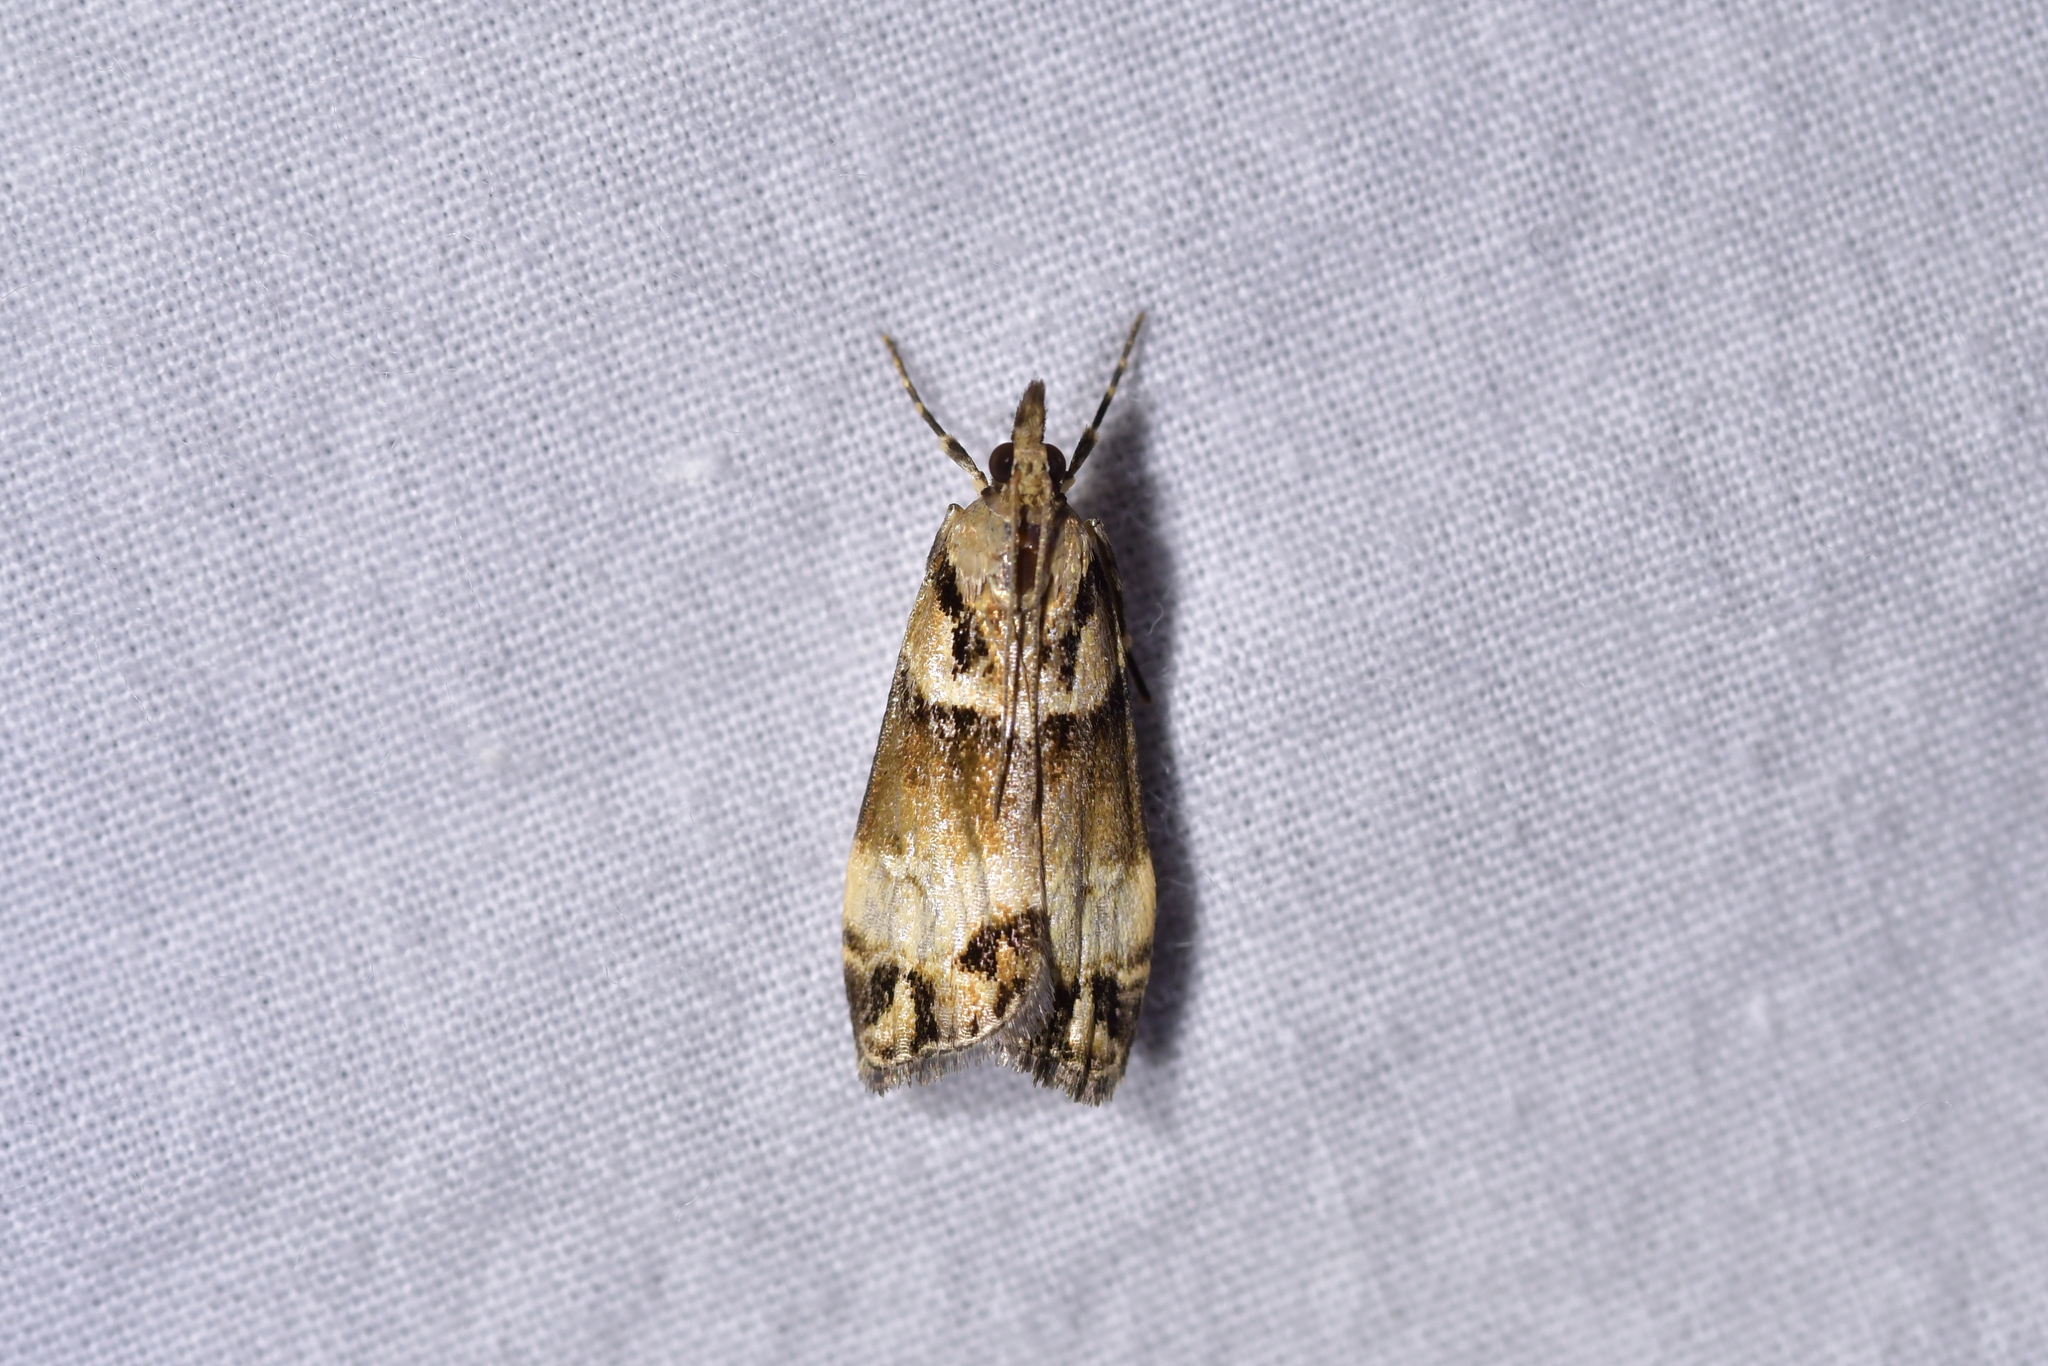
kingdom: Animalia
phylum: Arthropoda
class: Insecta
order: Lepidoptera
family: Crambidae
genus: Eudonia
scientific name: Eudonia periphanes
